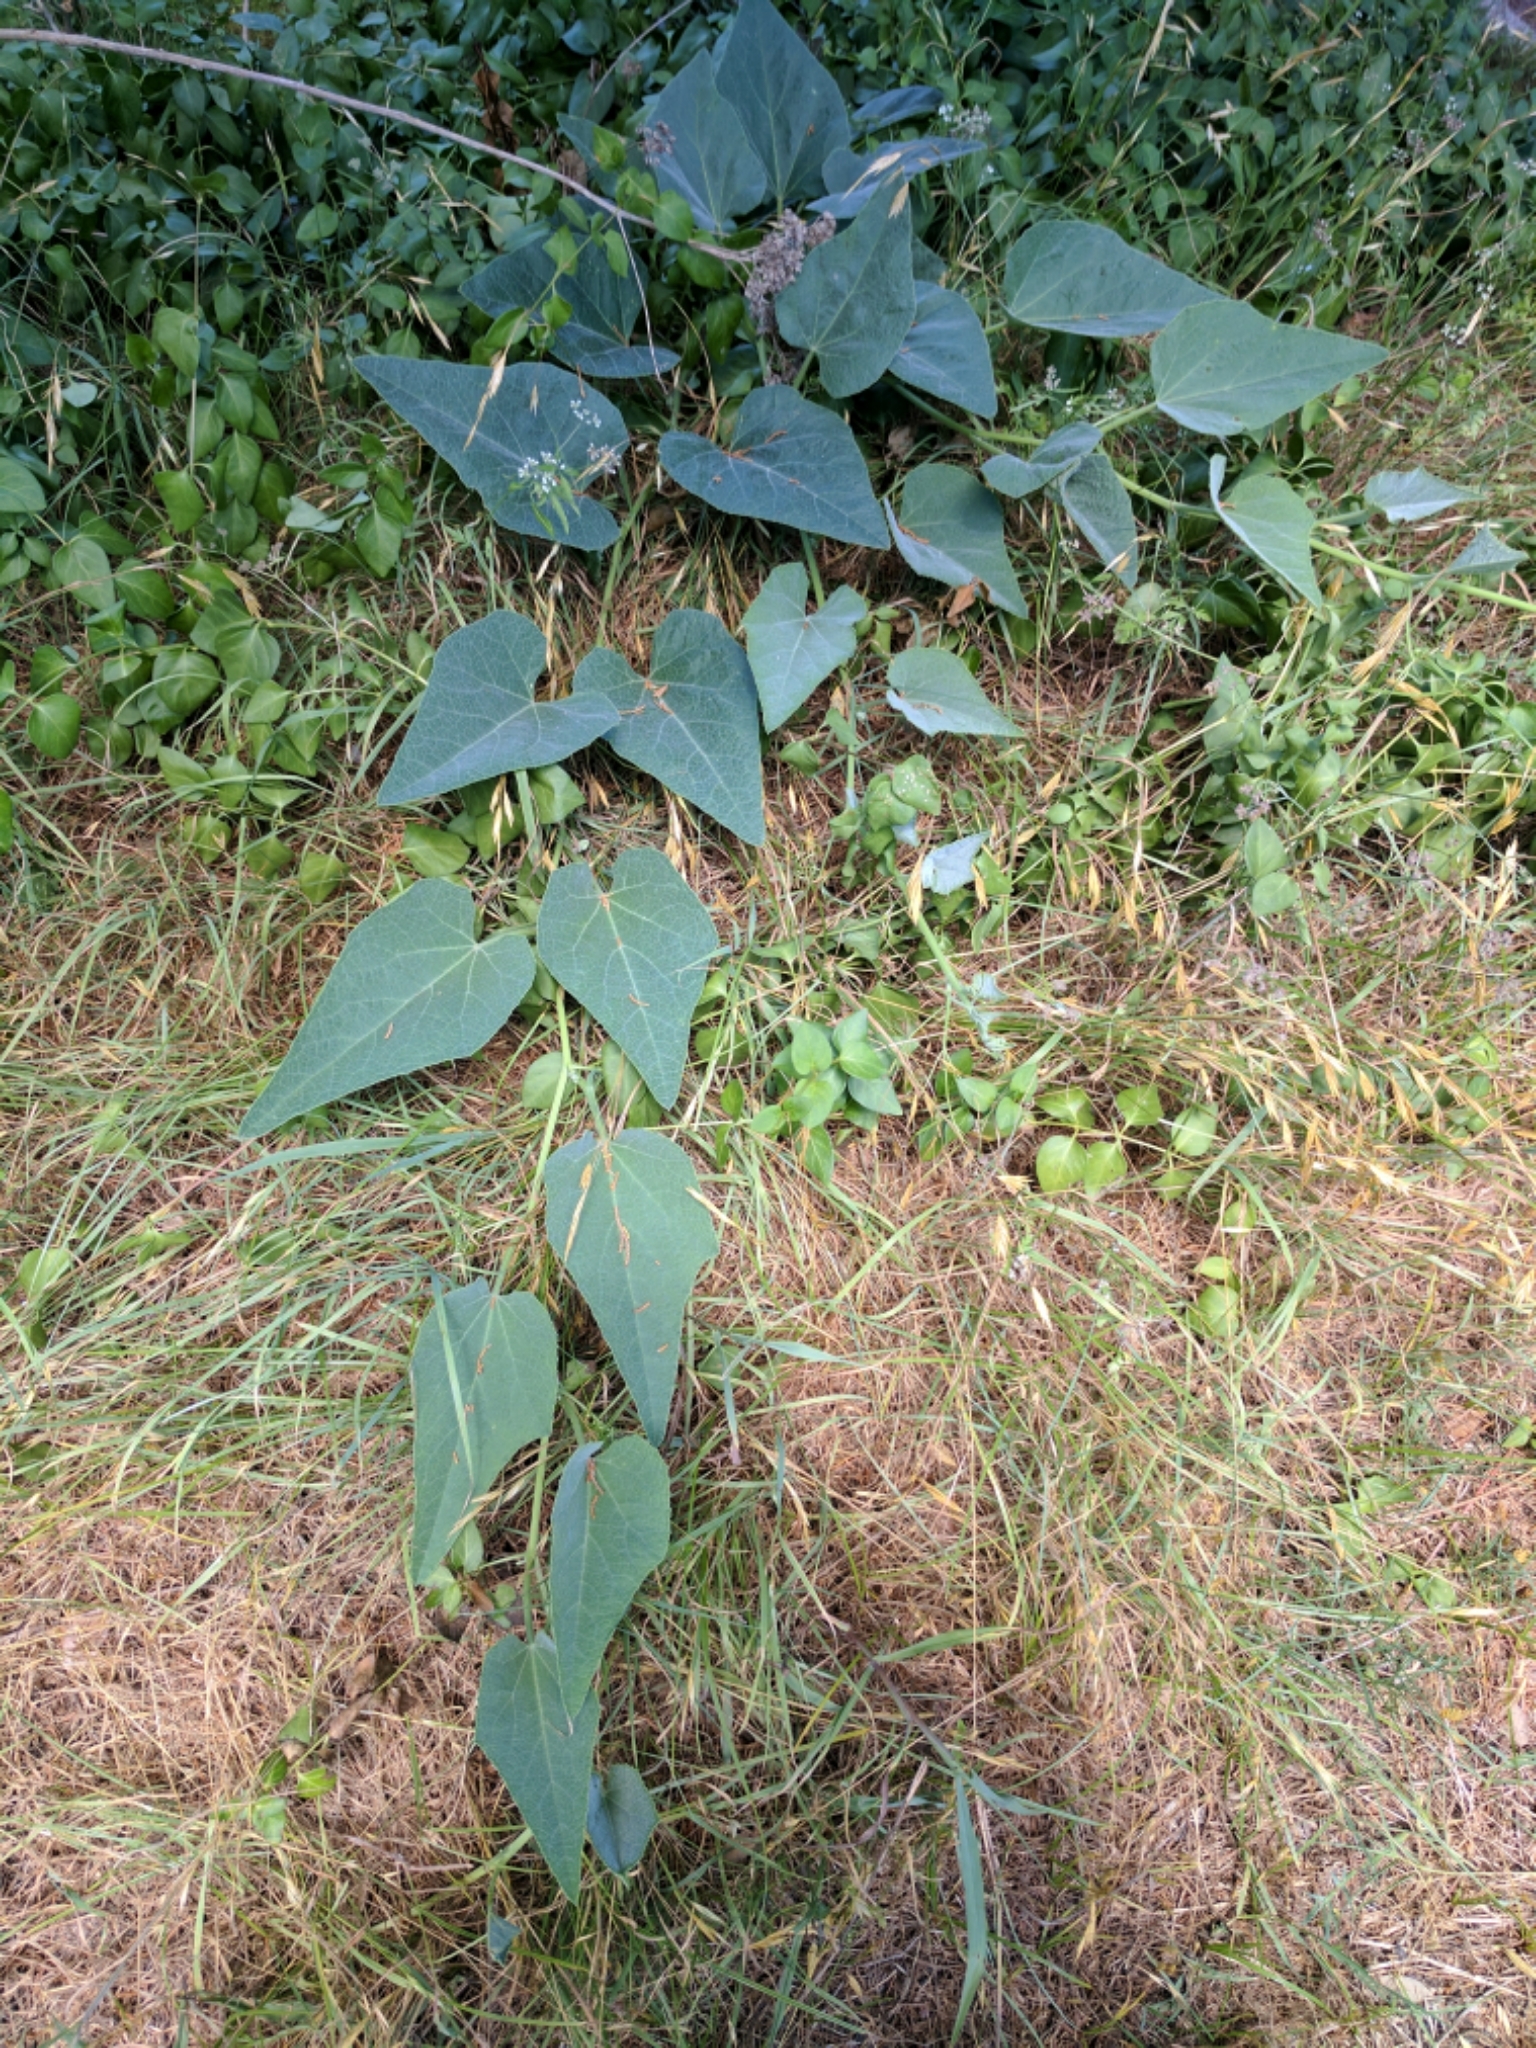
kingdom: Plantae
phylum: Tracheophyta
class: Magnoliopsida
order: Cucurbitales
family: Cucurbitaceae
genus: Cucurbita
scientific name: Cucurbita foetidissima
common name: Buffalo gourd
